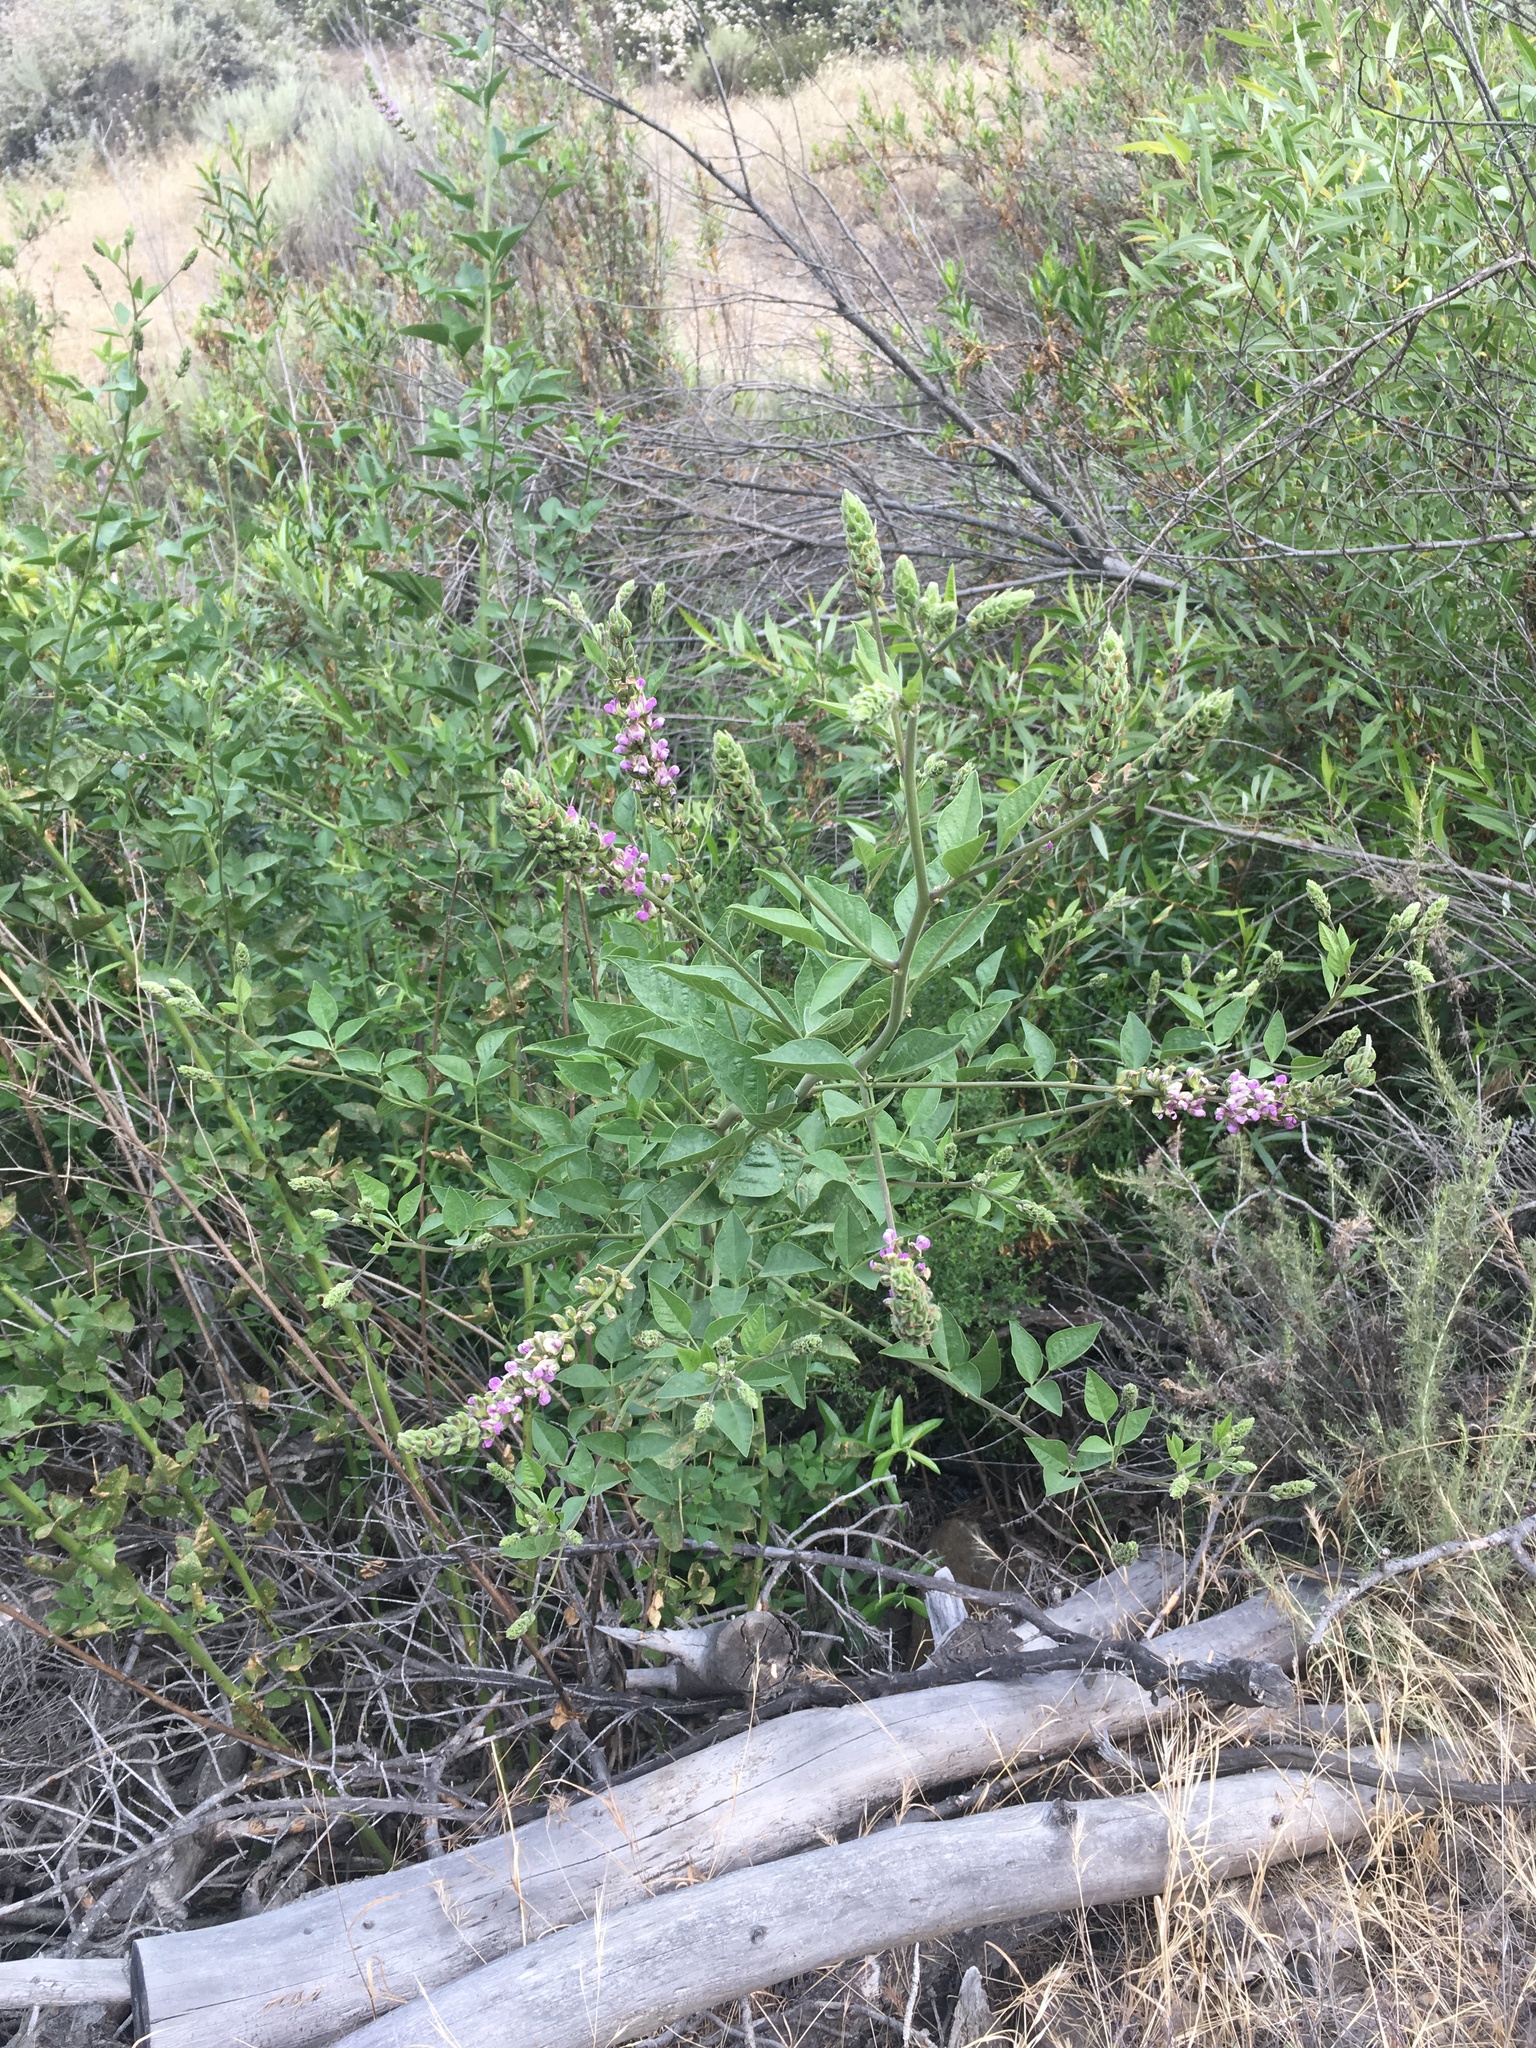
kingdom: Plantae
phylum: Tracheophyta
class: Magnoliopsida
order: Fabales
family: Fabaceae
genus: Hoita
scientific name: Hoita macrostachya
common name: Leatherroot
